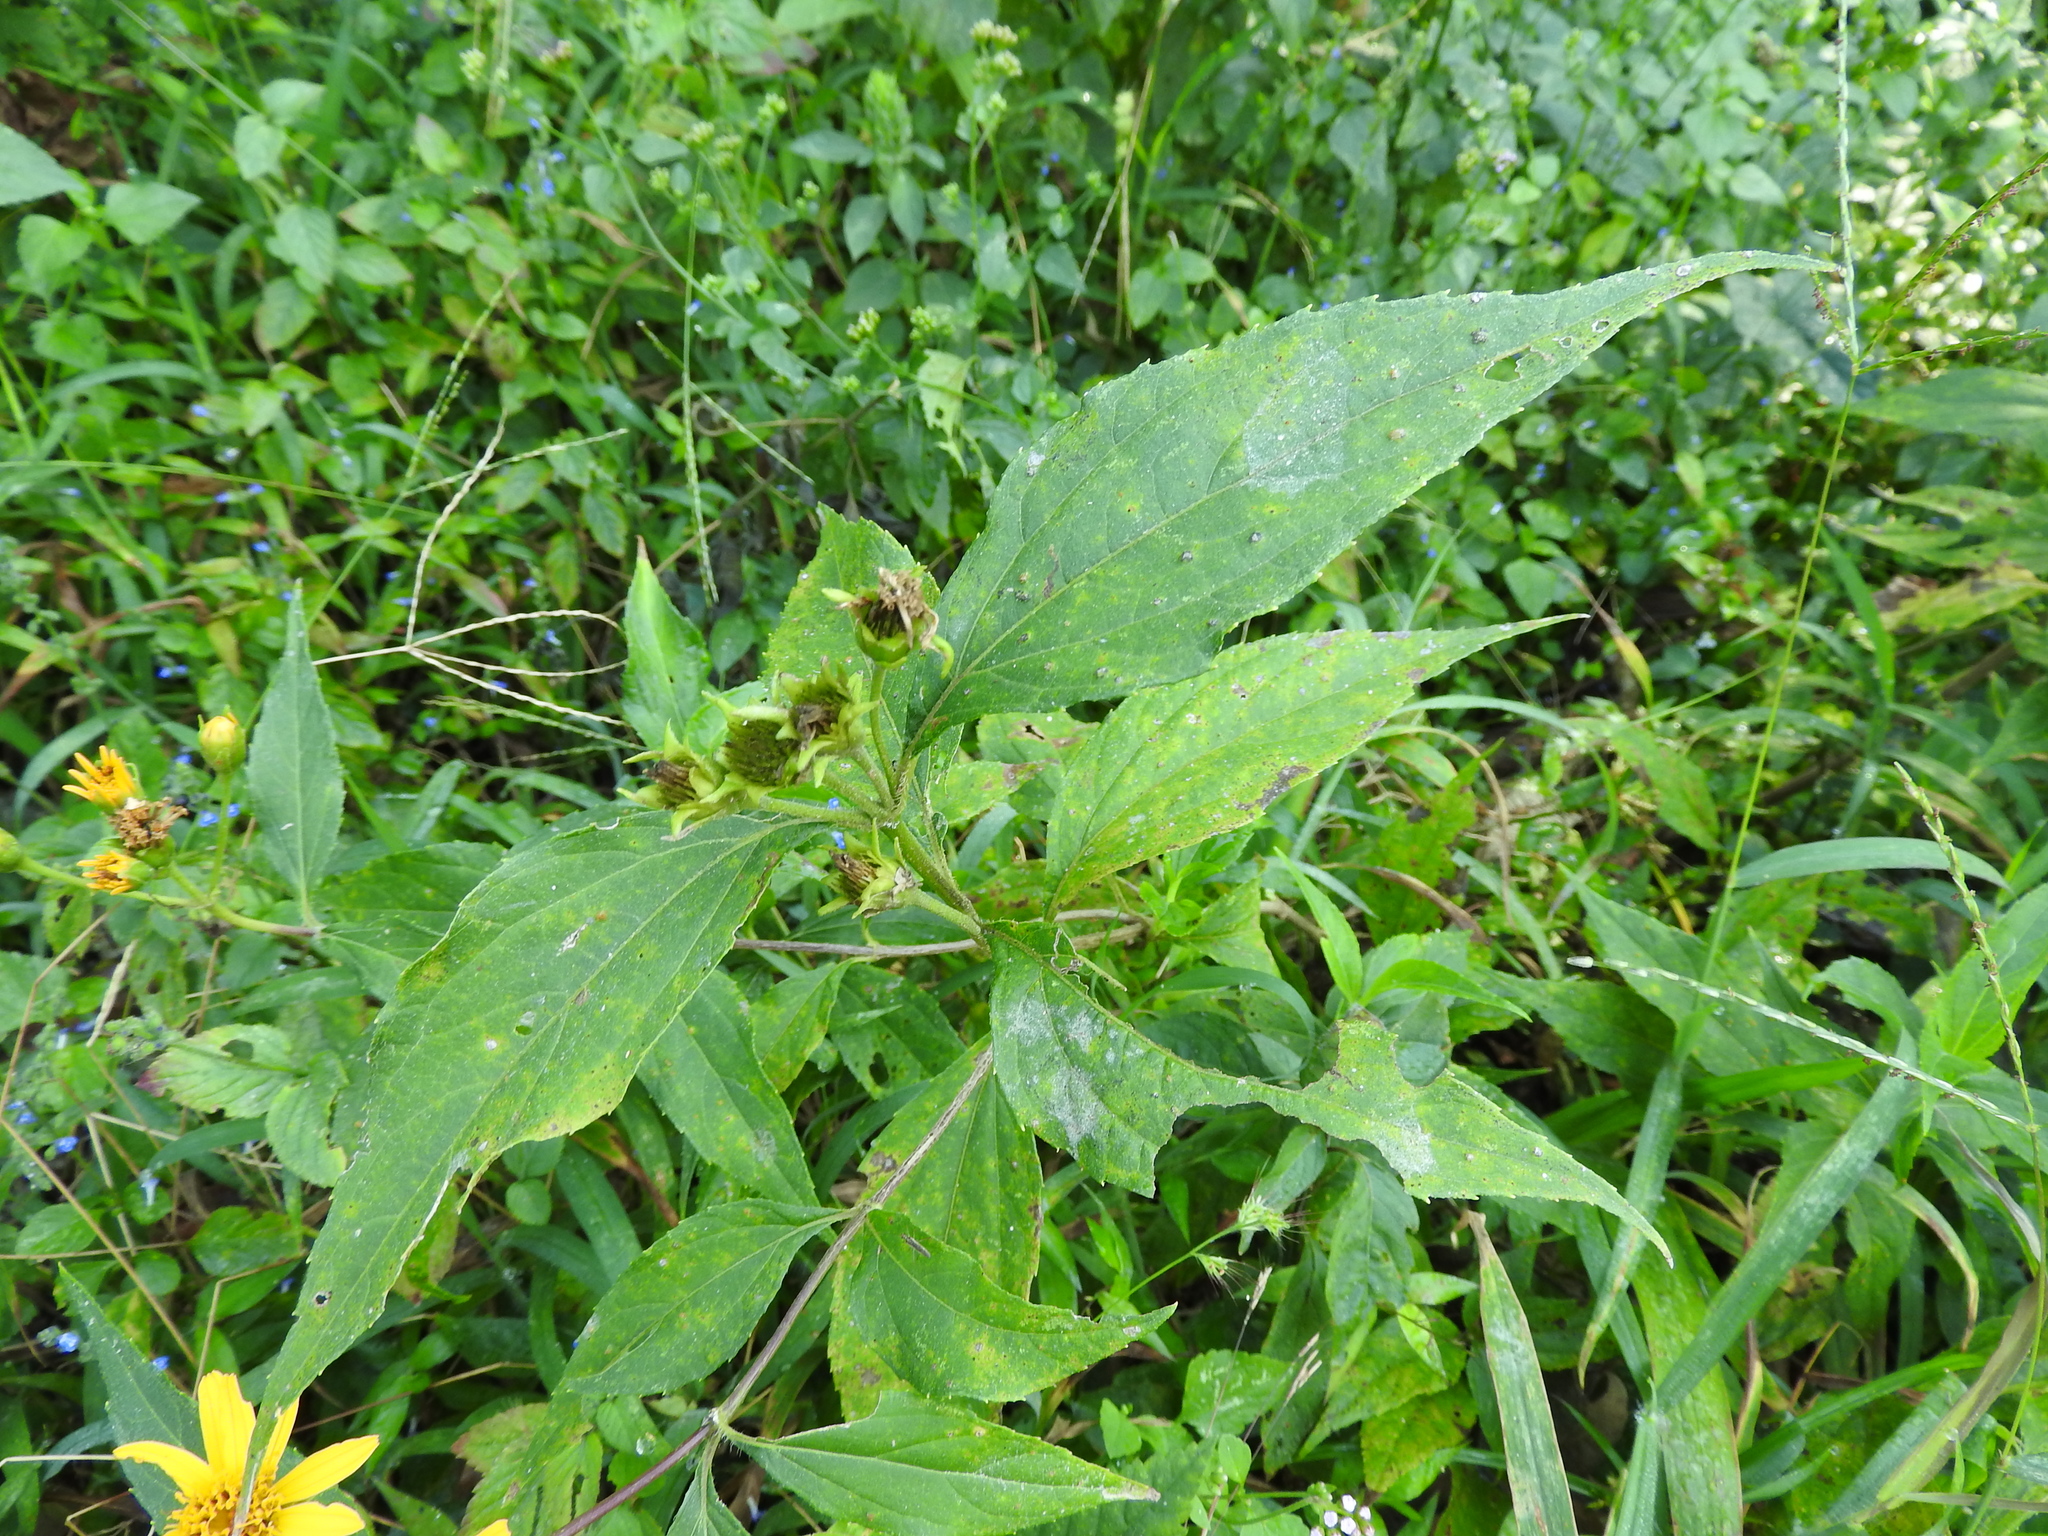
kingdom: Plantae
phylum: Tracheophyta
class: Magnoliopsida
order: Asterales
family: Asteraceae
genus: Lasianthaea
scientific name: Lasianthaea fruticosa
